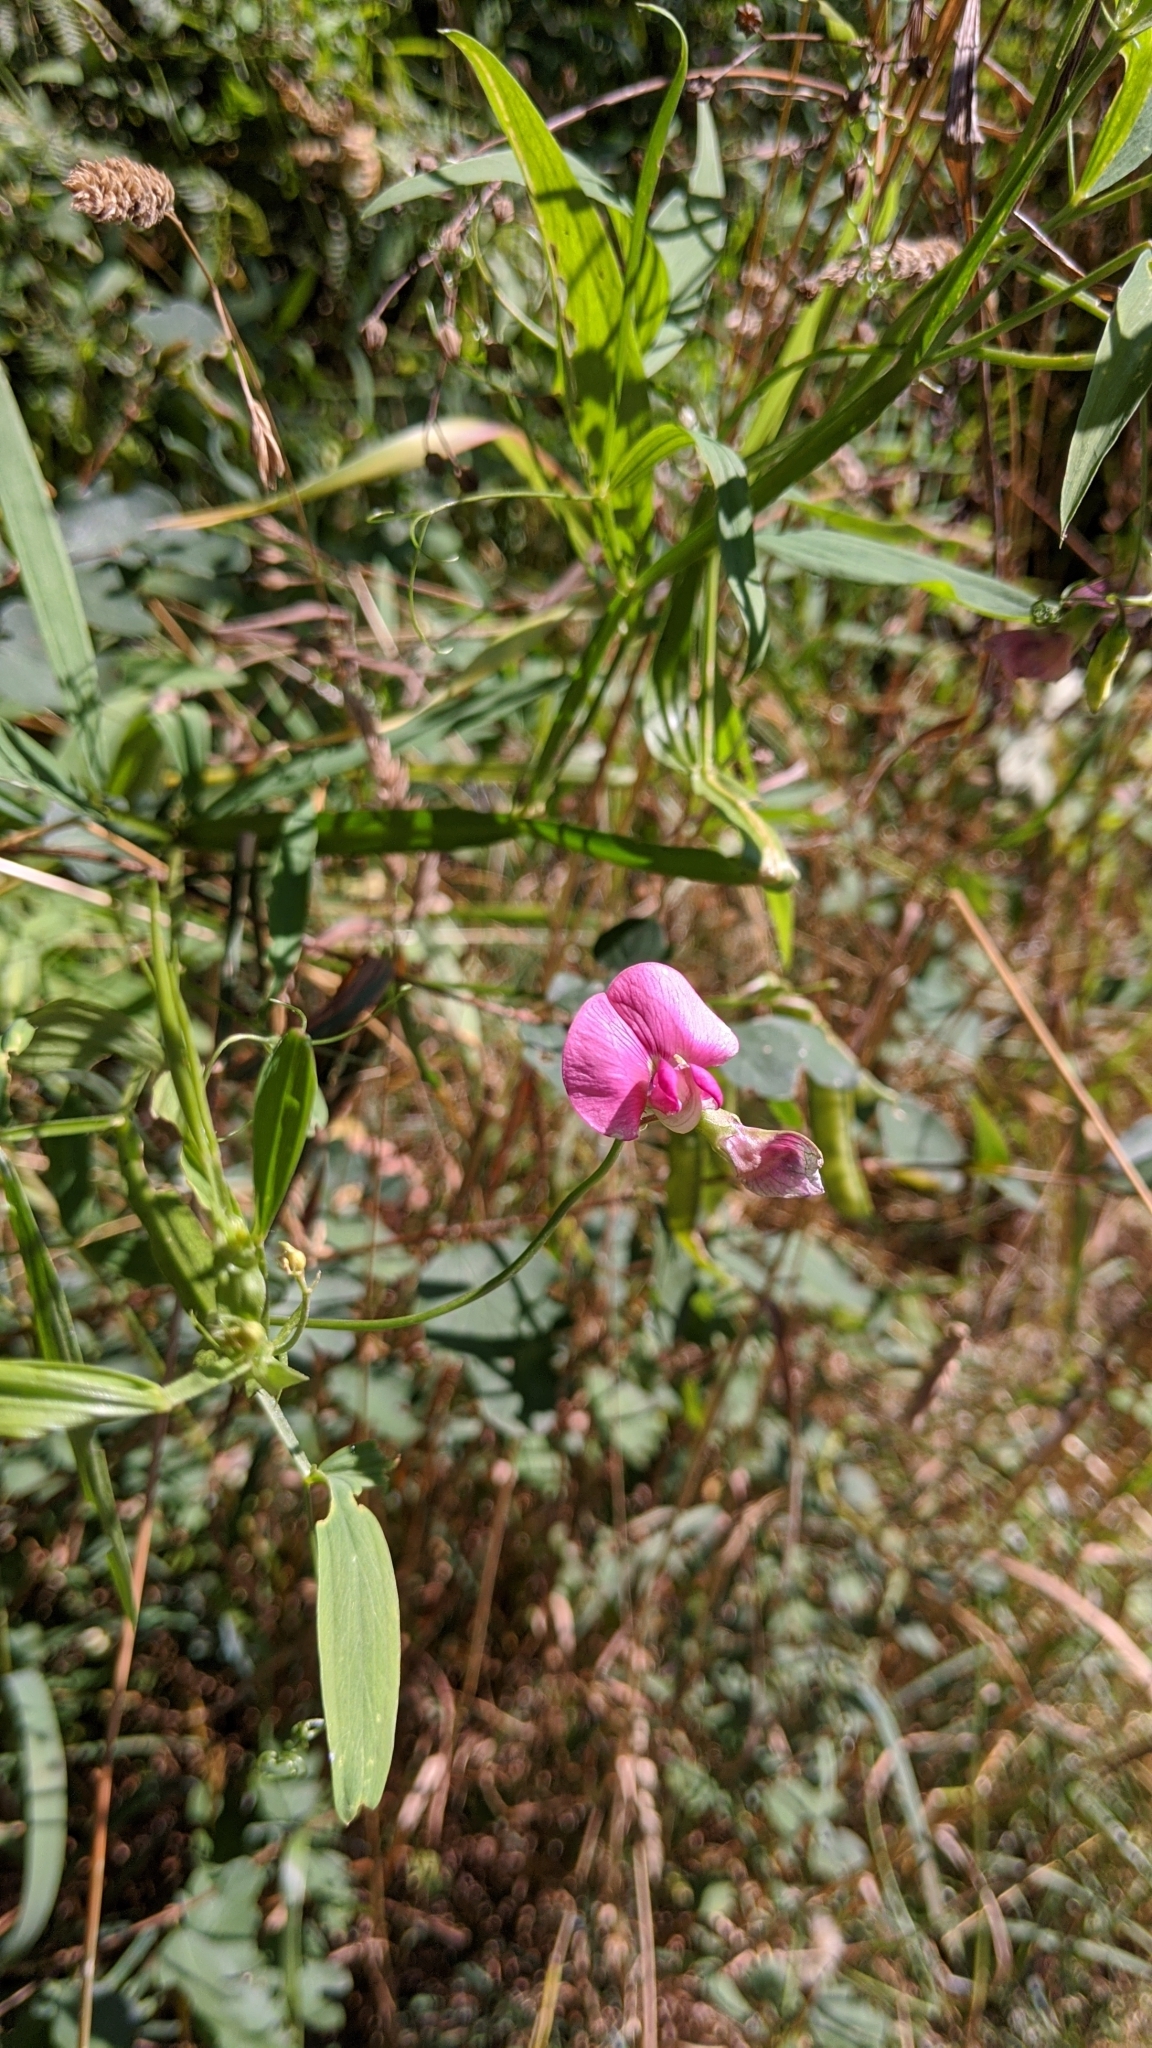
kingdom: Plantae
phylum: Tracheophyta
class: Magnoliopsida
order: Fabales
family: Fabaceae
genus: Lathyrus
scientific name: Lathyrus sylvestris
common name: Flat pea
